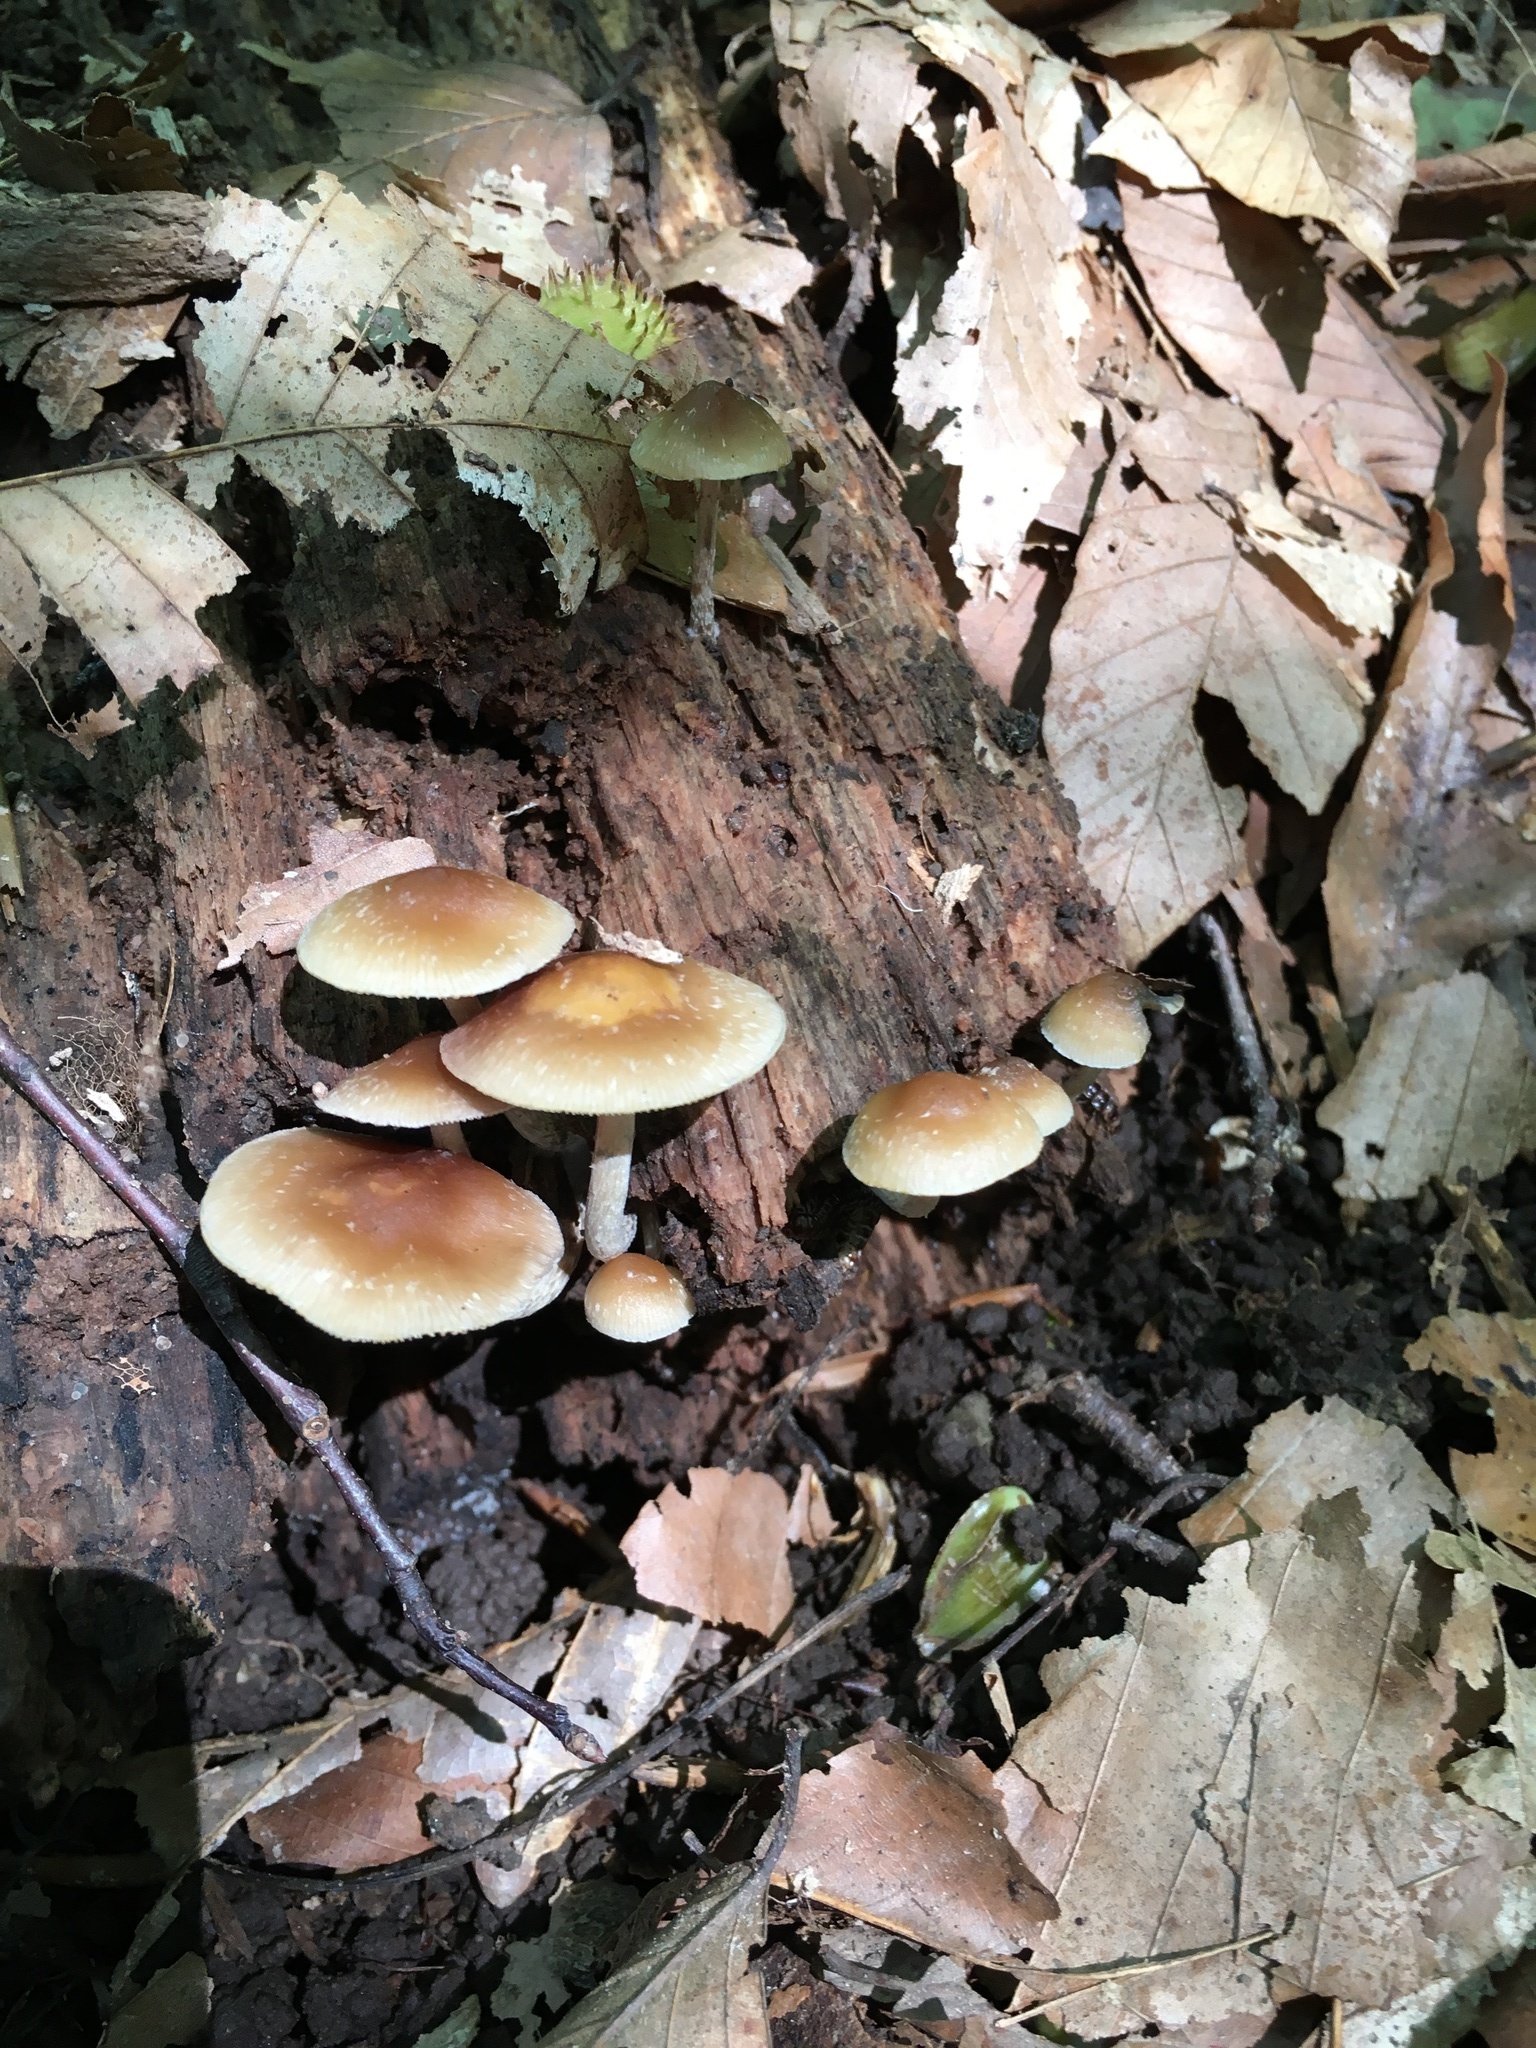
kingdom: Fungi
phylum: Basidiomycota
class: Agaricomycetes
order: Agaricales
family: Hymenogastraceae
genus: Psilocybe
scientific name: Psilocybe caerulipes
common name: Blue-foot
